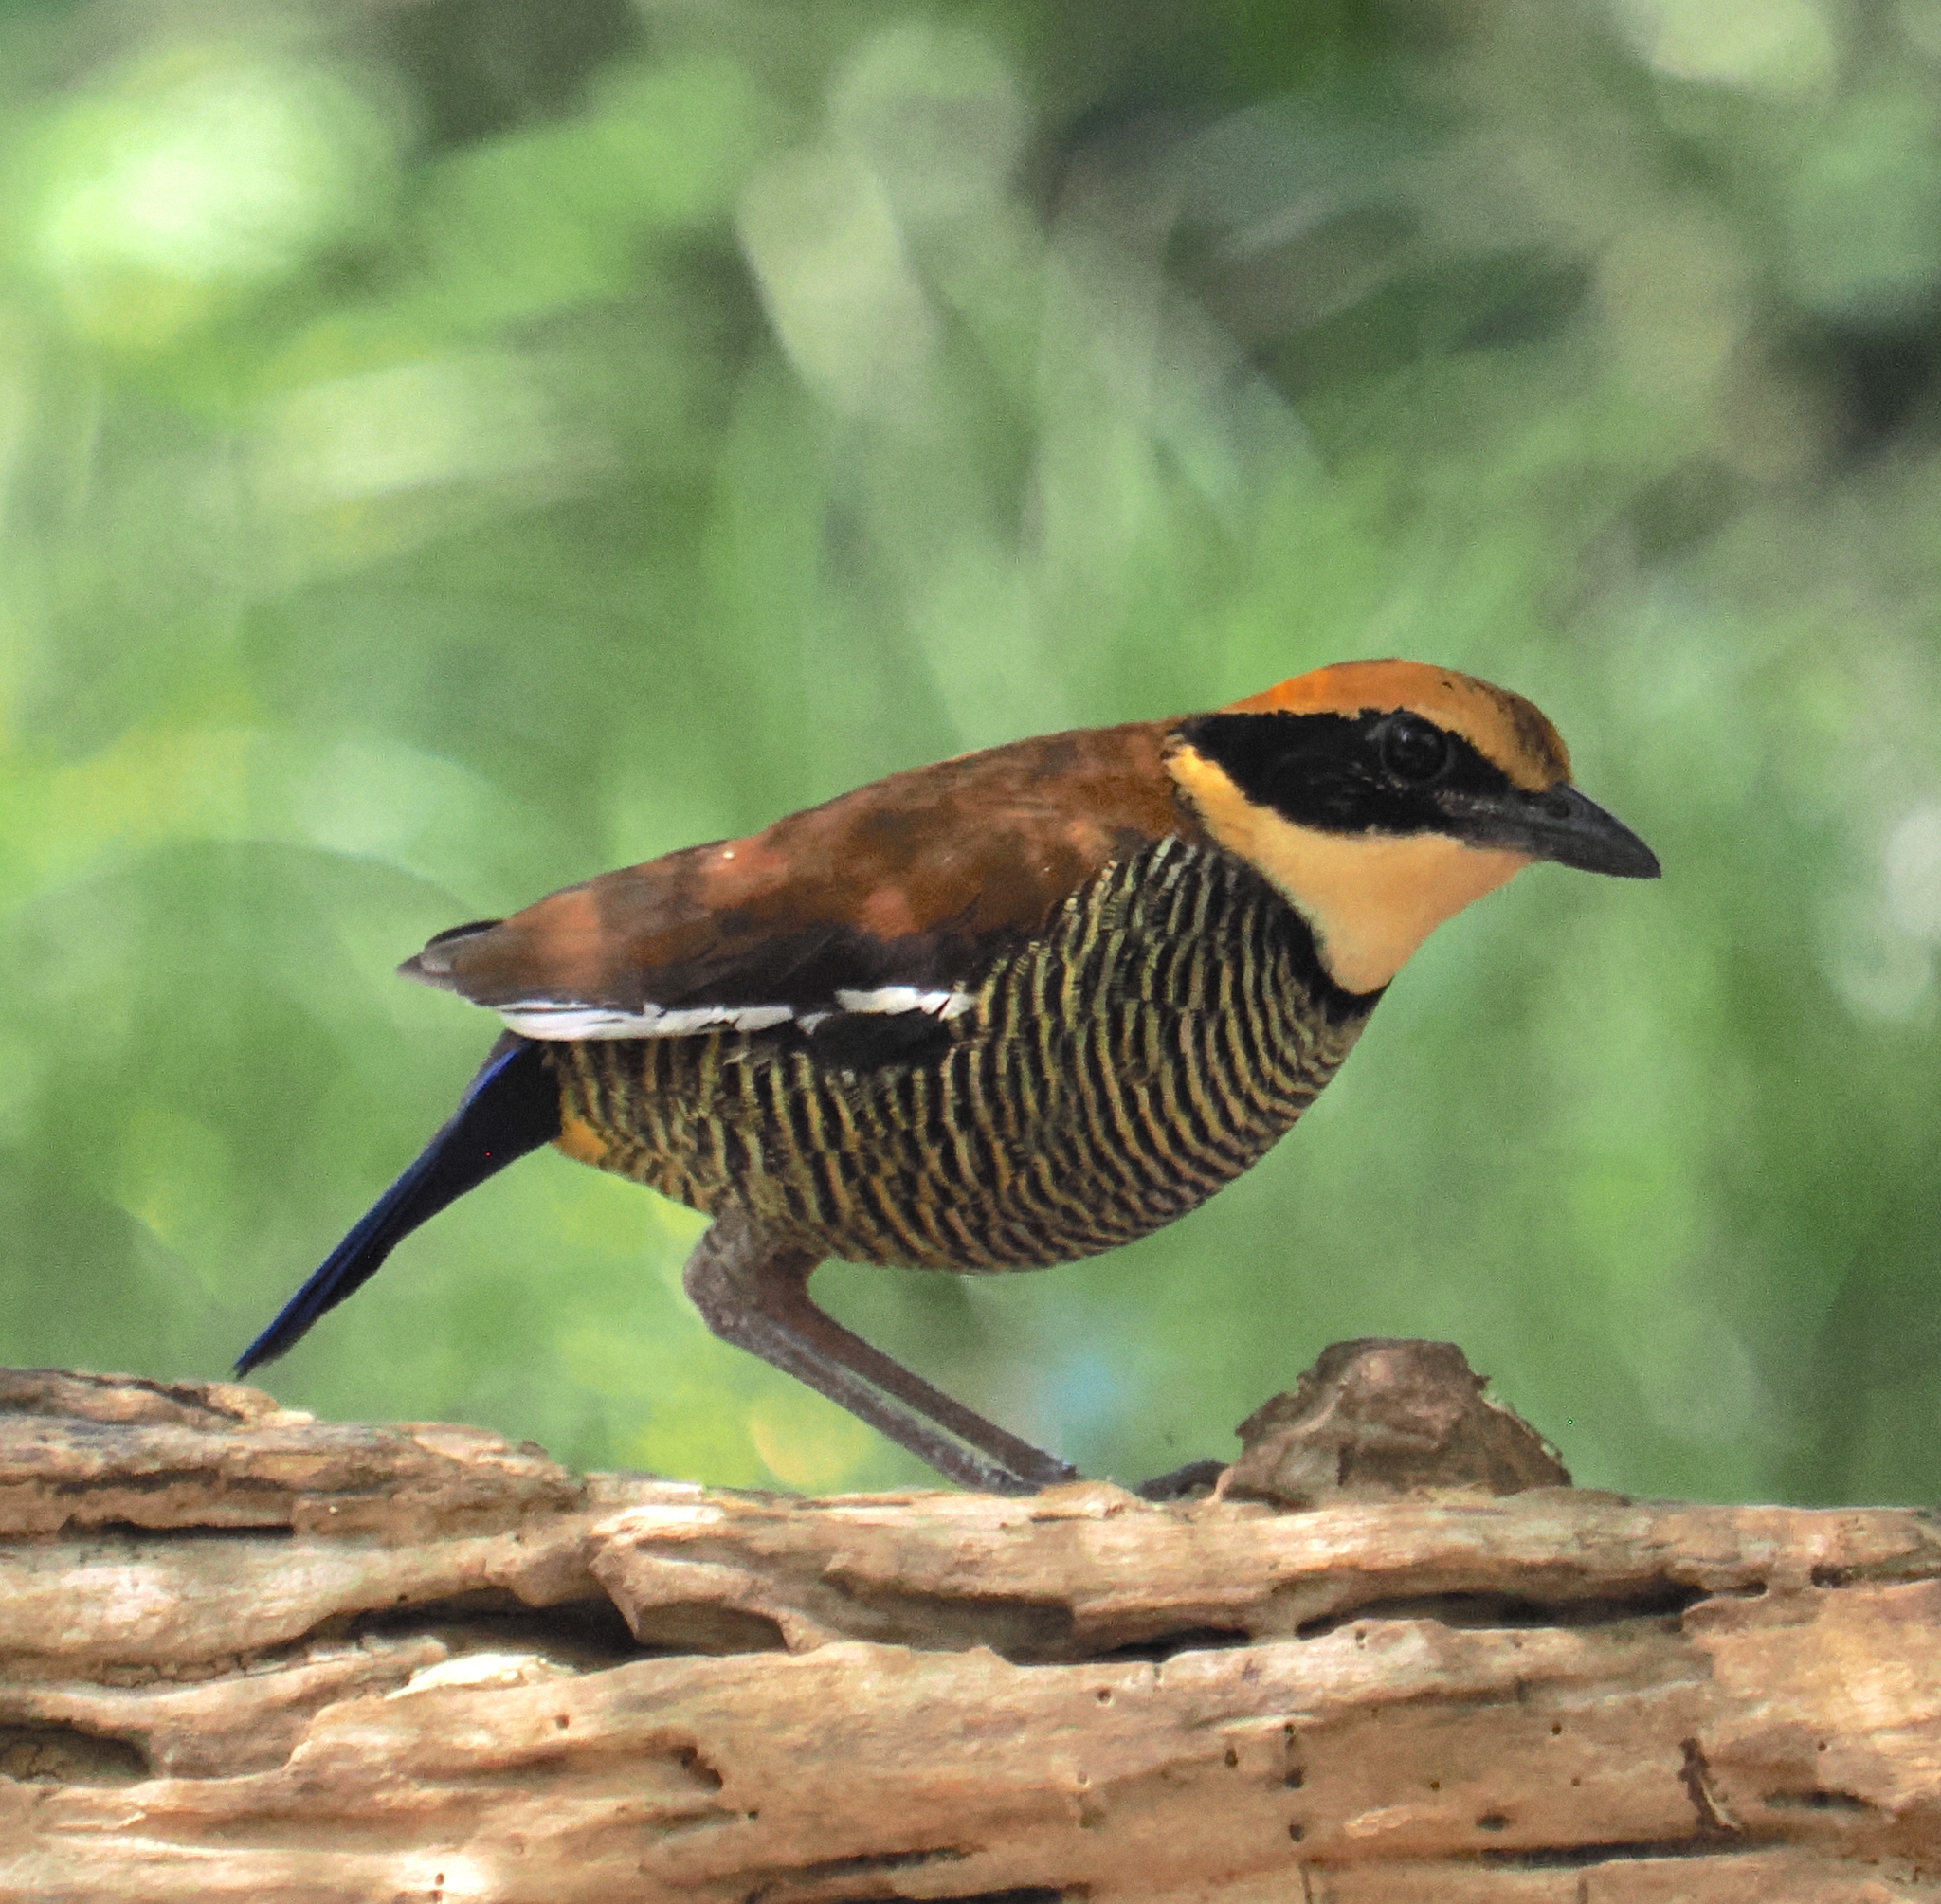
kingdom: Animalia
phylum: Chordata
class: Aves
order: Passeriformes
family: Pittidae
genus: Pitta
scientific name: Pitta guajana
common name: Banded pitta
